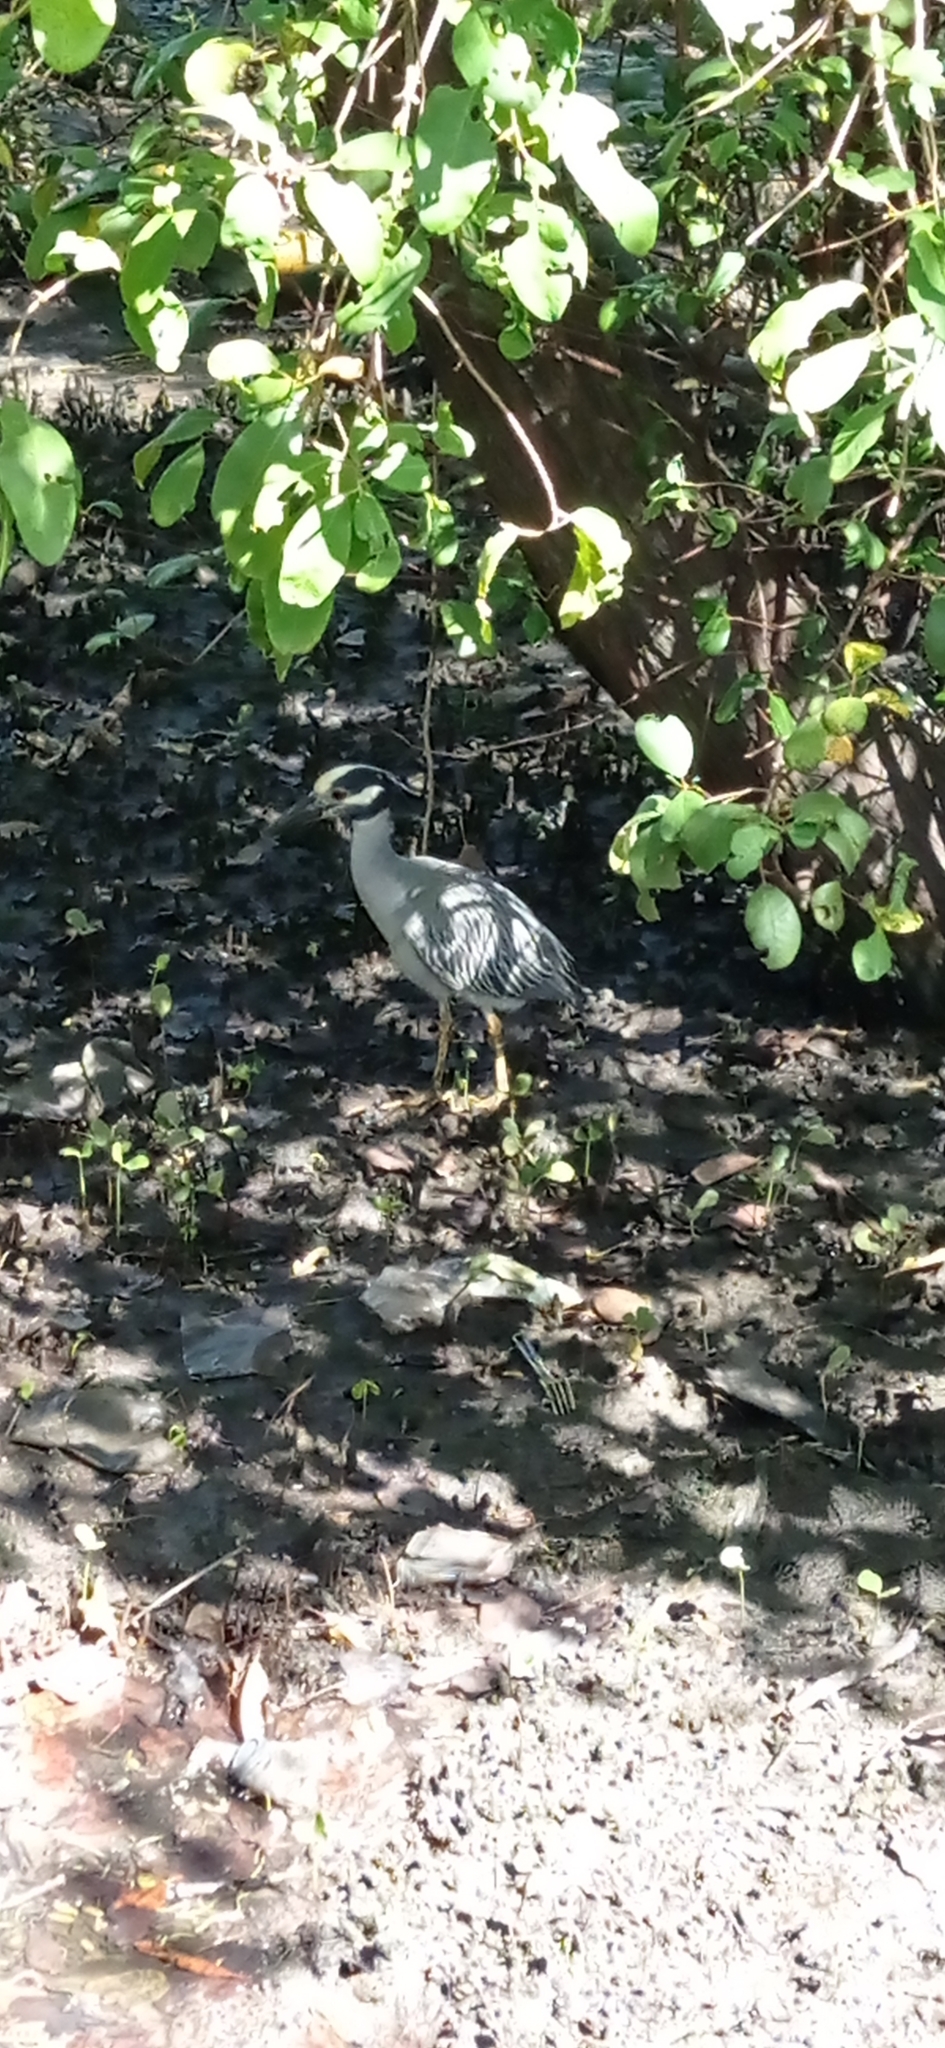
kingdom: Animalia
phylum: Chordata
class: Aves
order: Pelecaniformes
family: Ardeidae
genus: Nyctanassa
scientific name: Nyctanassa violacea
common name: Yellow-crowned night heron
